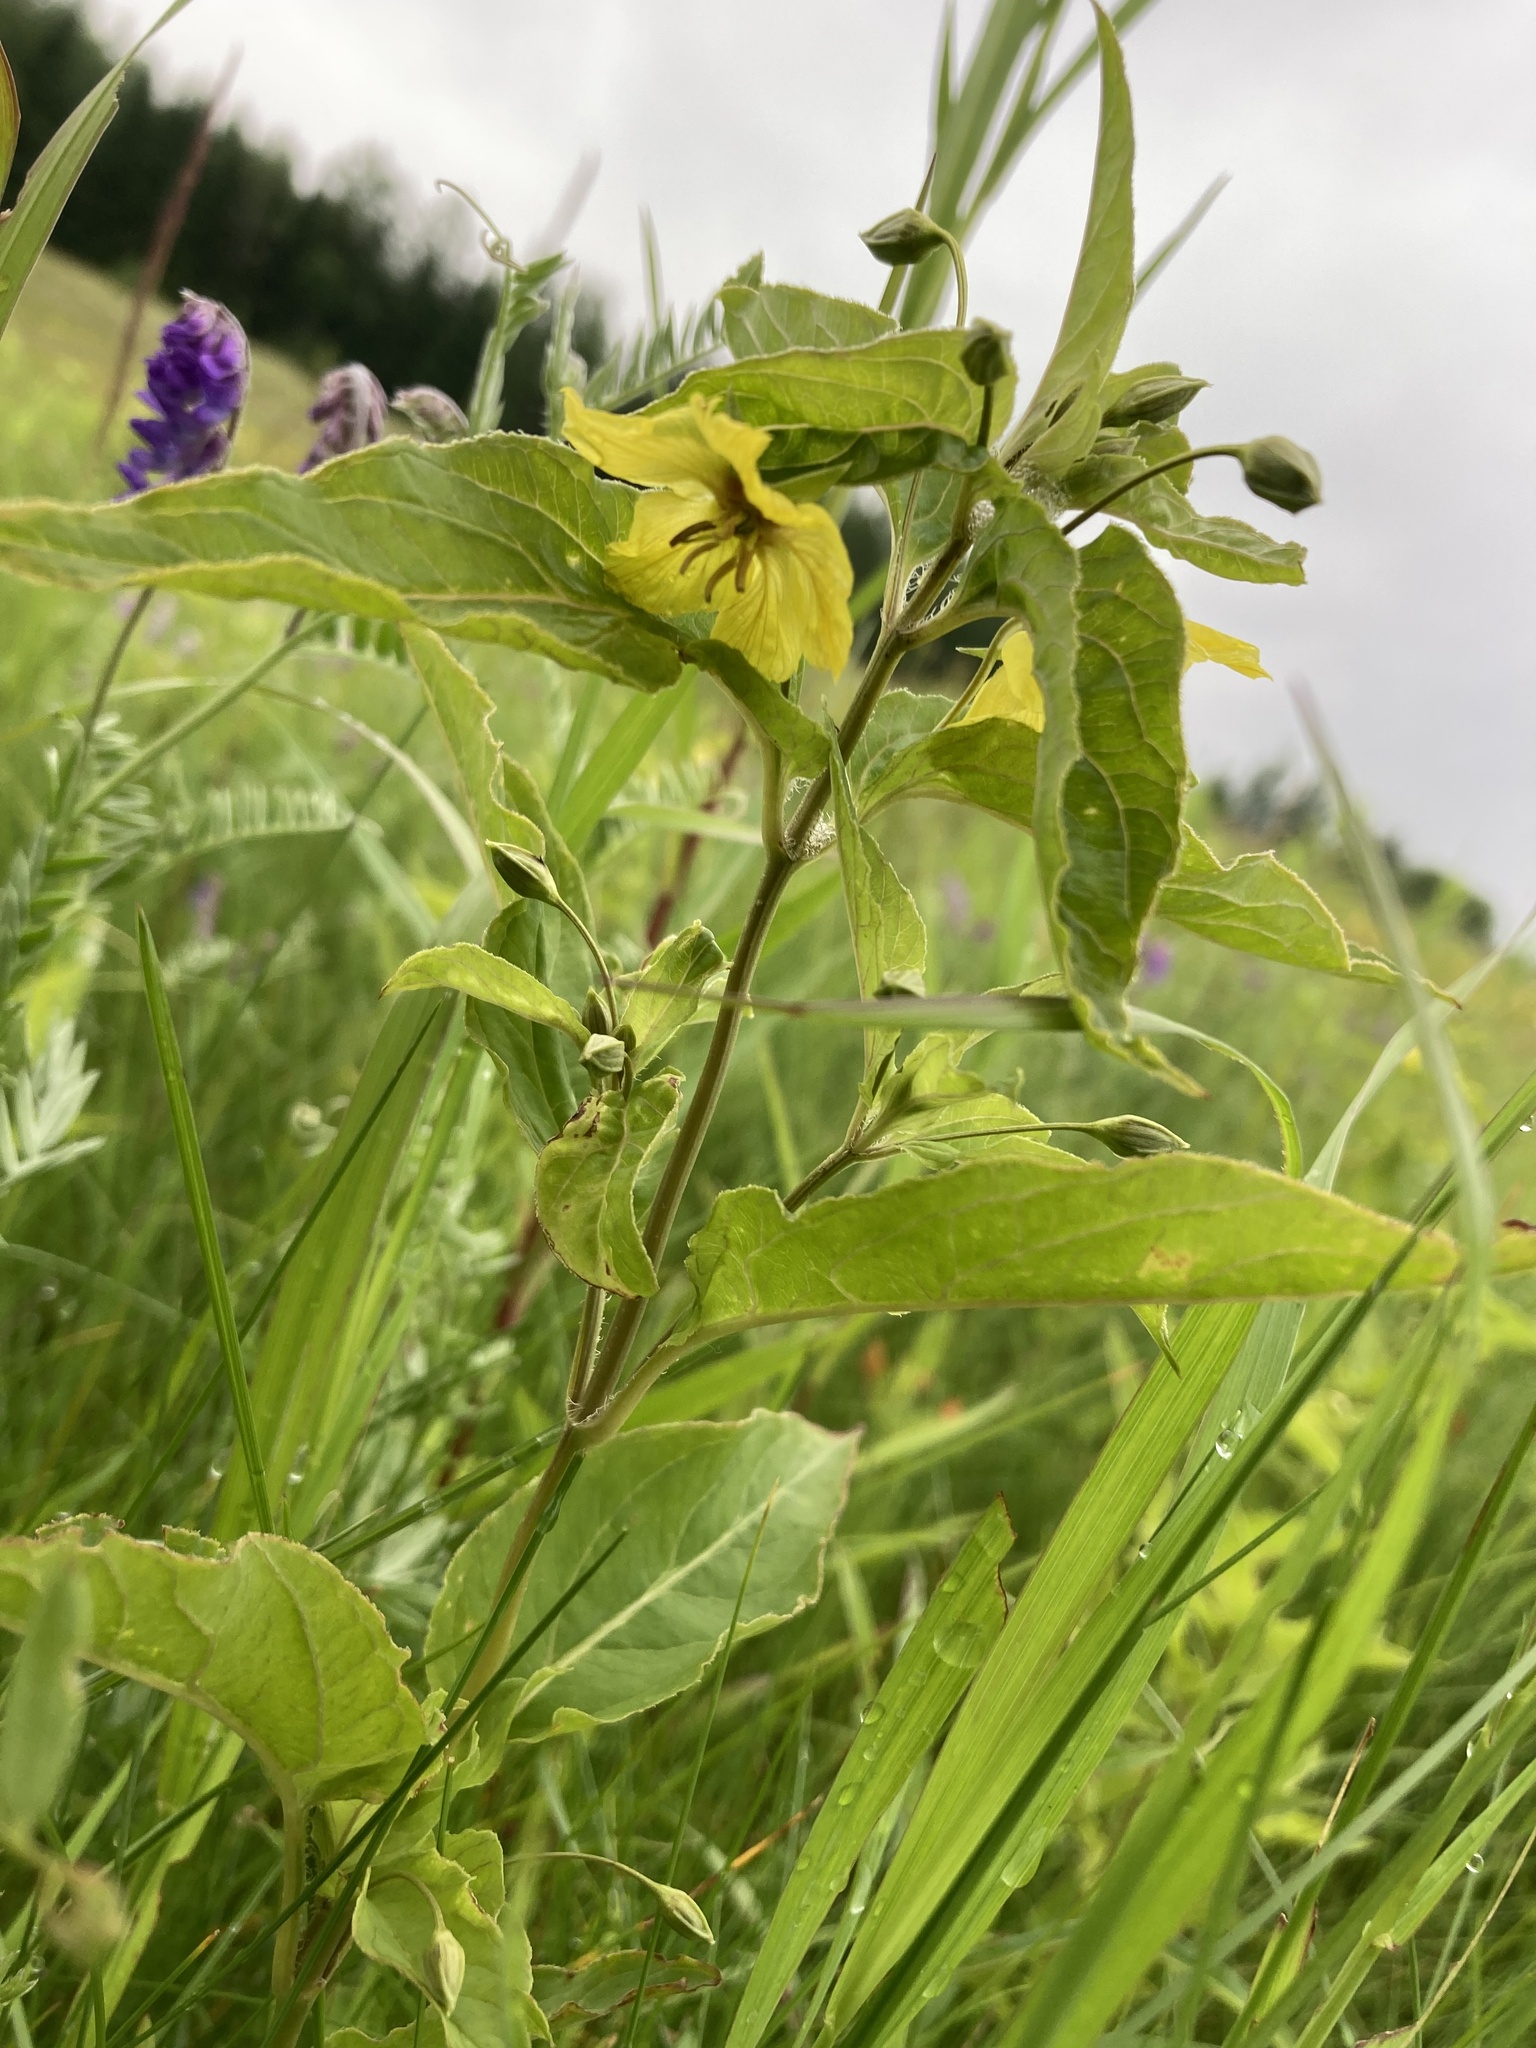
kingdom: Plantae
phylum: Tracheophyta
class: Magnoliopsida
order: Ericales
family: Primulaceae
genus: Lysimachia
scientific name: Lysimachia ciliata
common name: Fringed loosestrife
